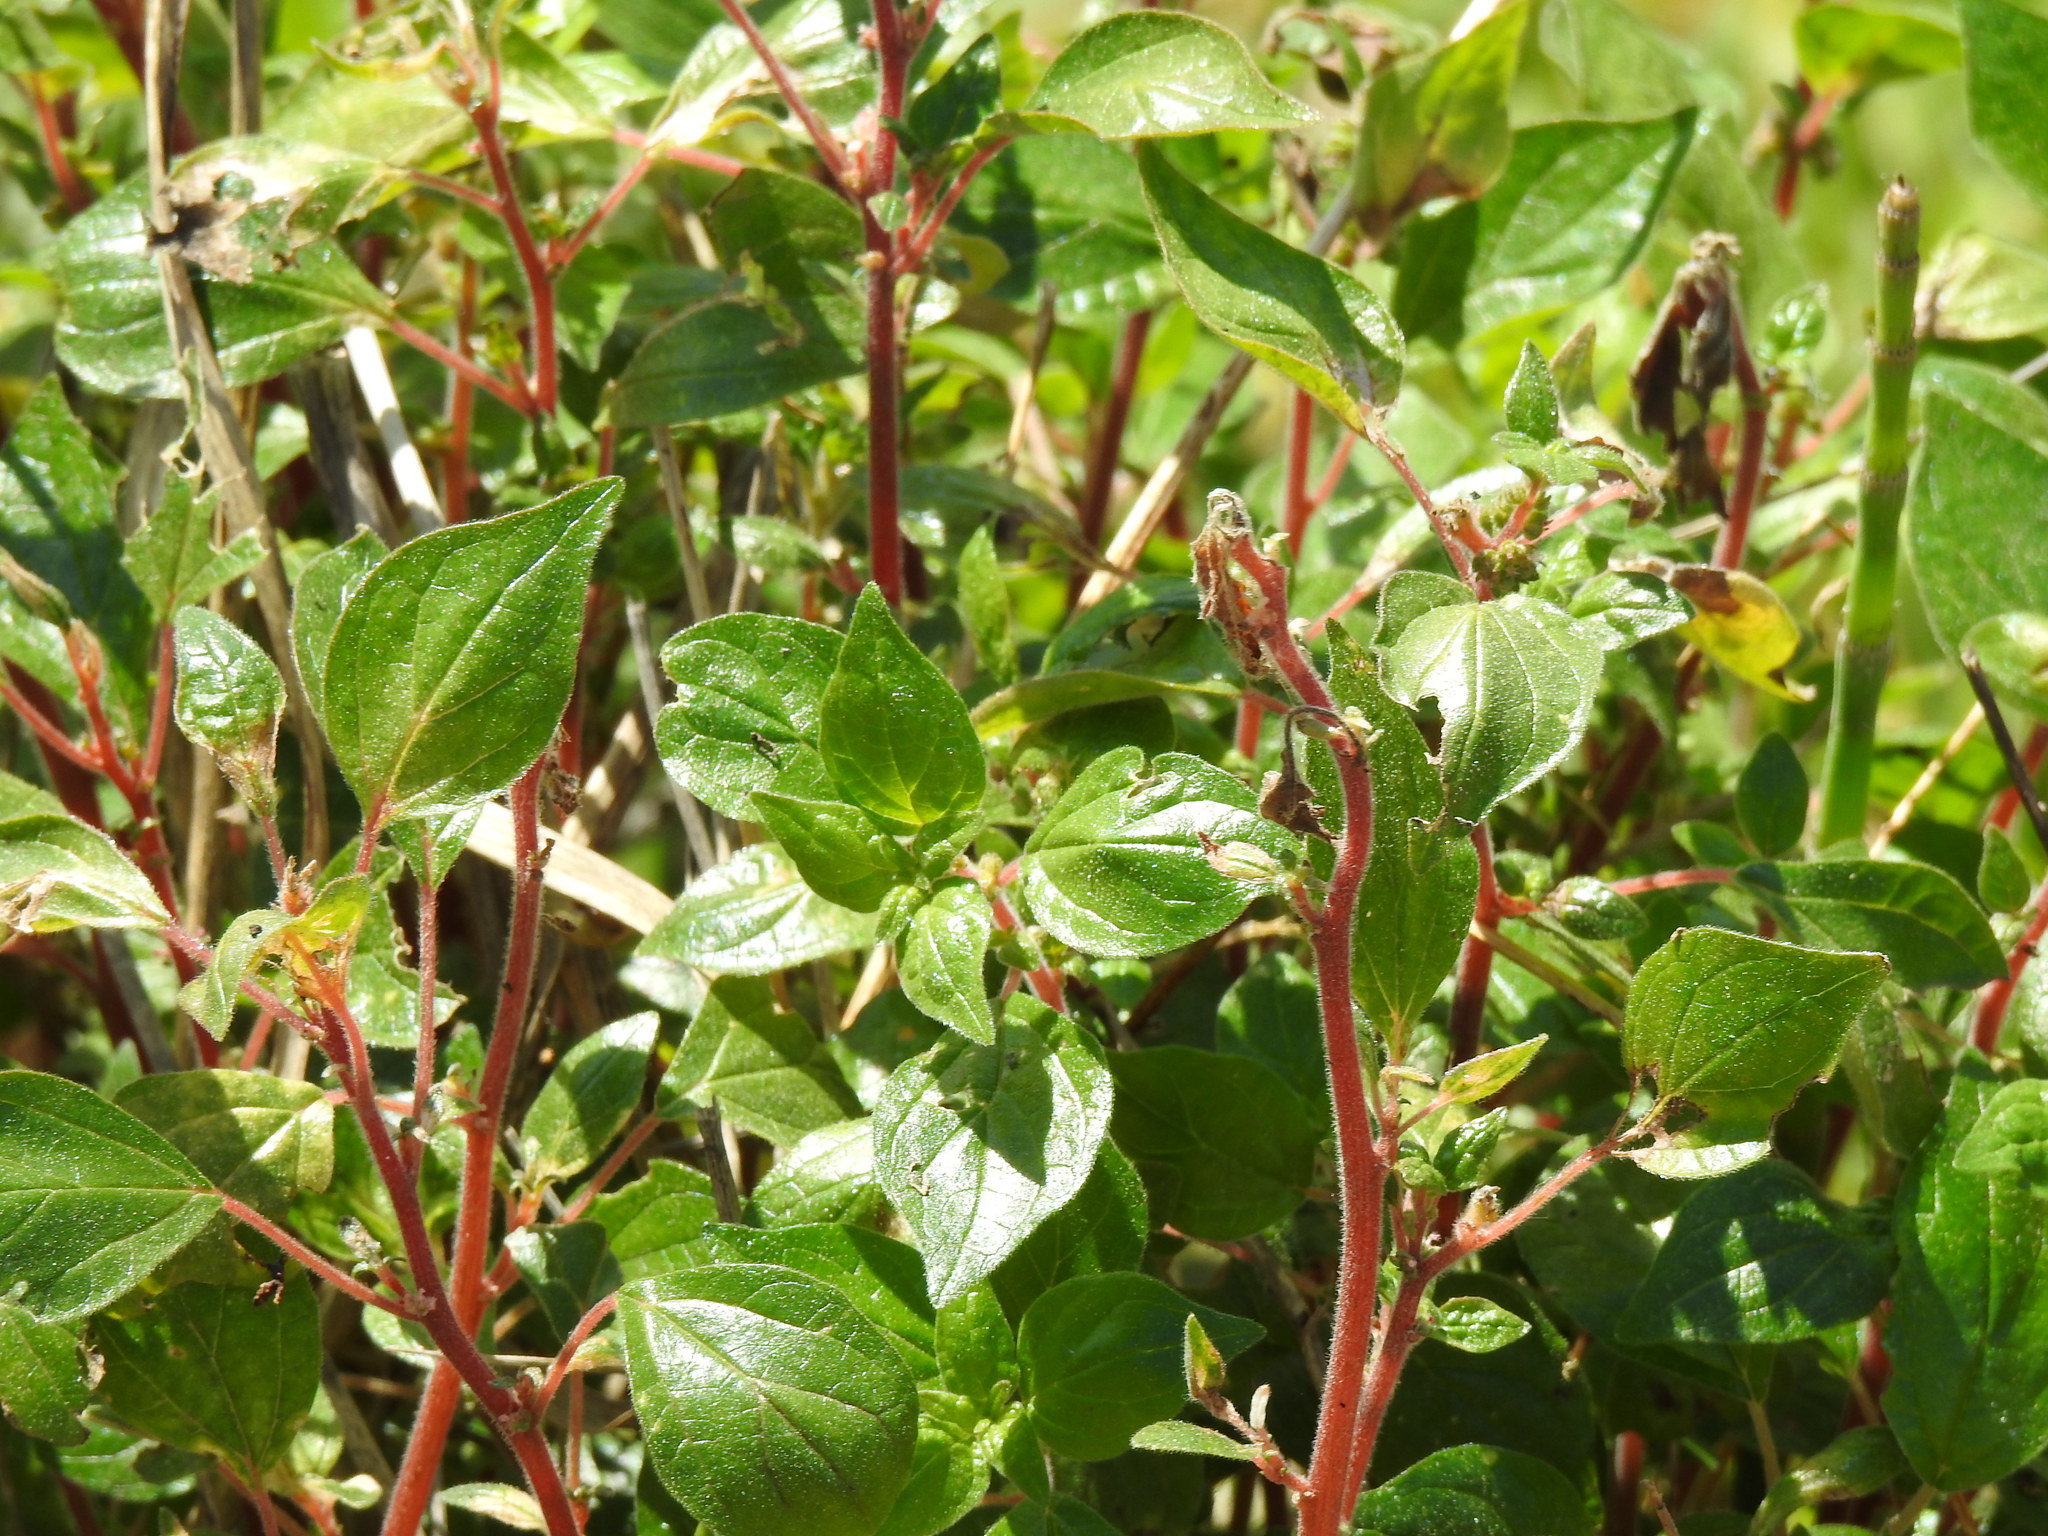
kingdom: Plantae
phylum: Tracheophyta
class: Magnoliopsida
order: Rosales
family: Urticaceae
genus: Parietaria
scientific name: Parietaria judaica
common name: Pellitory-of-the-wall
